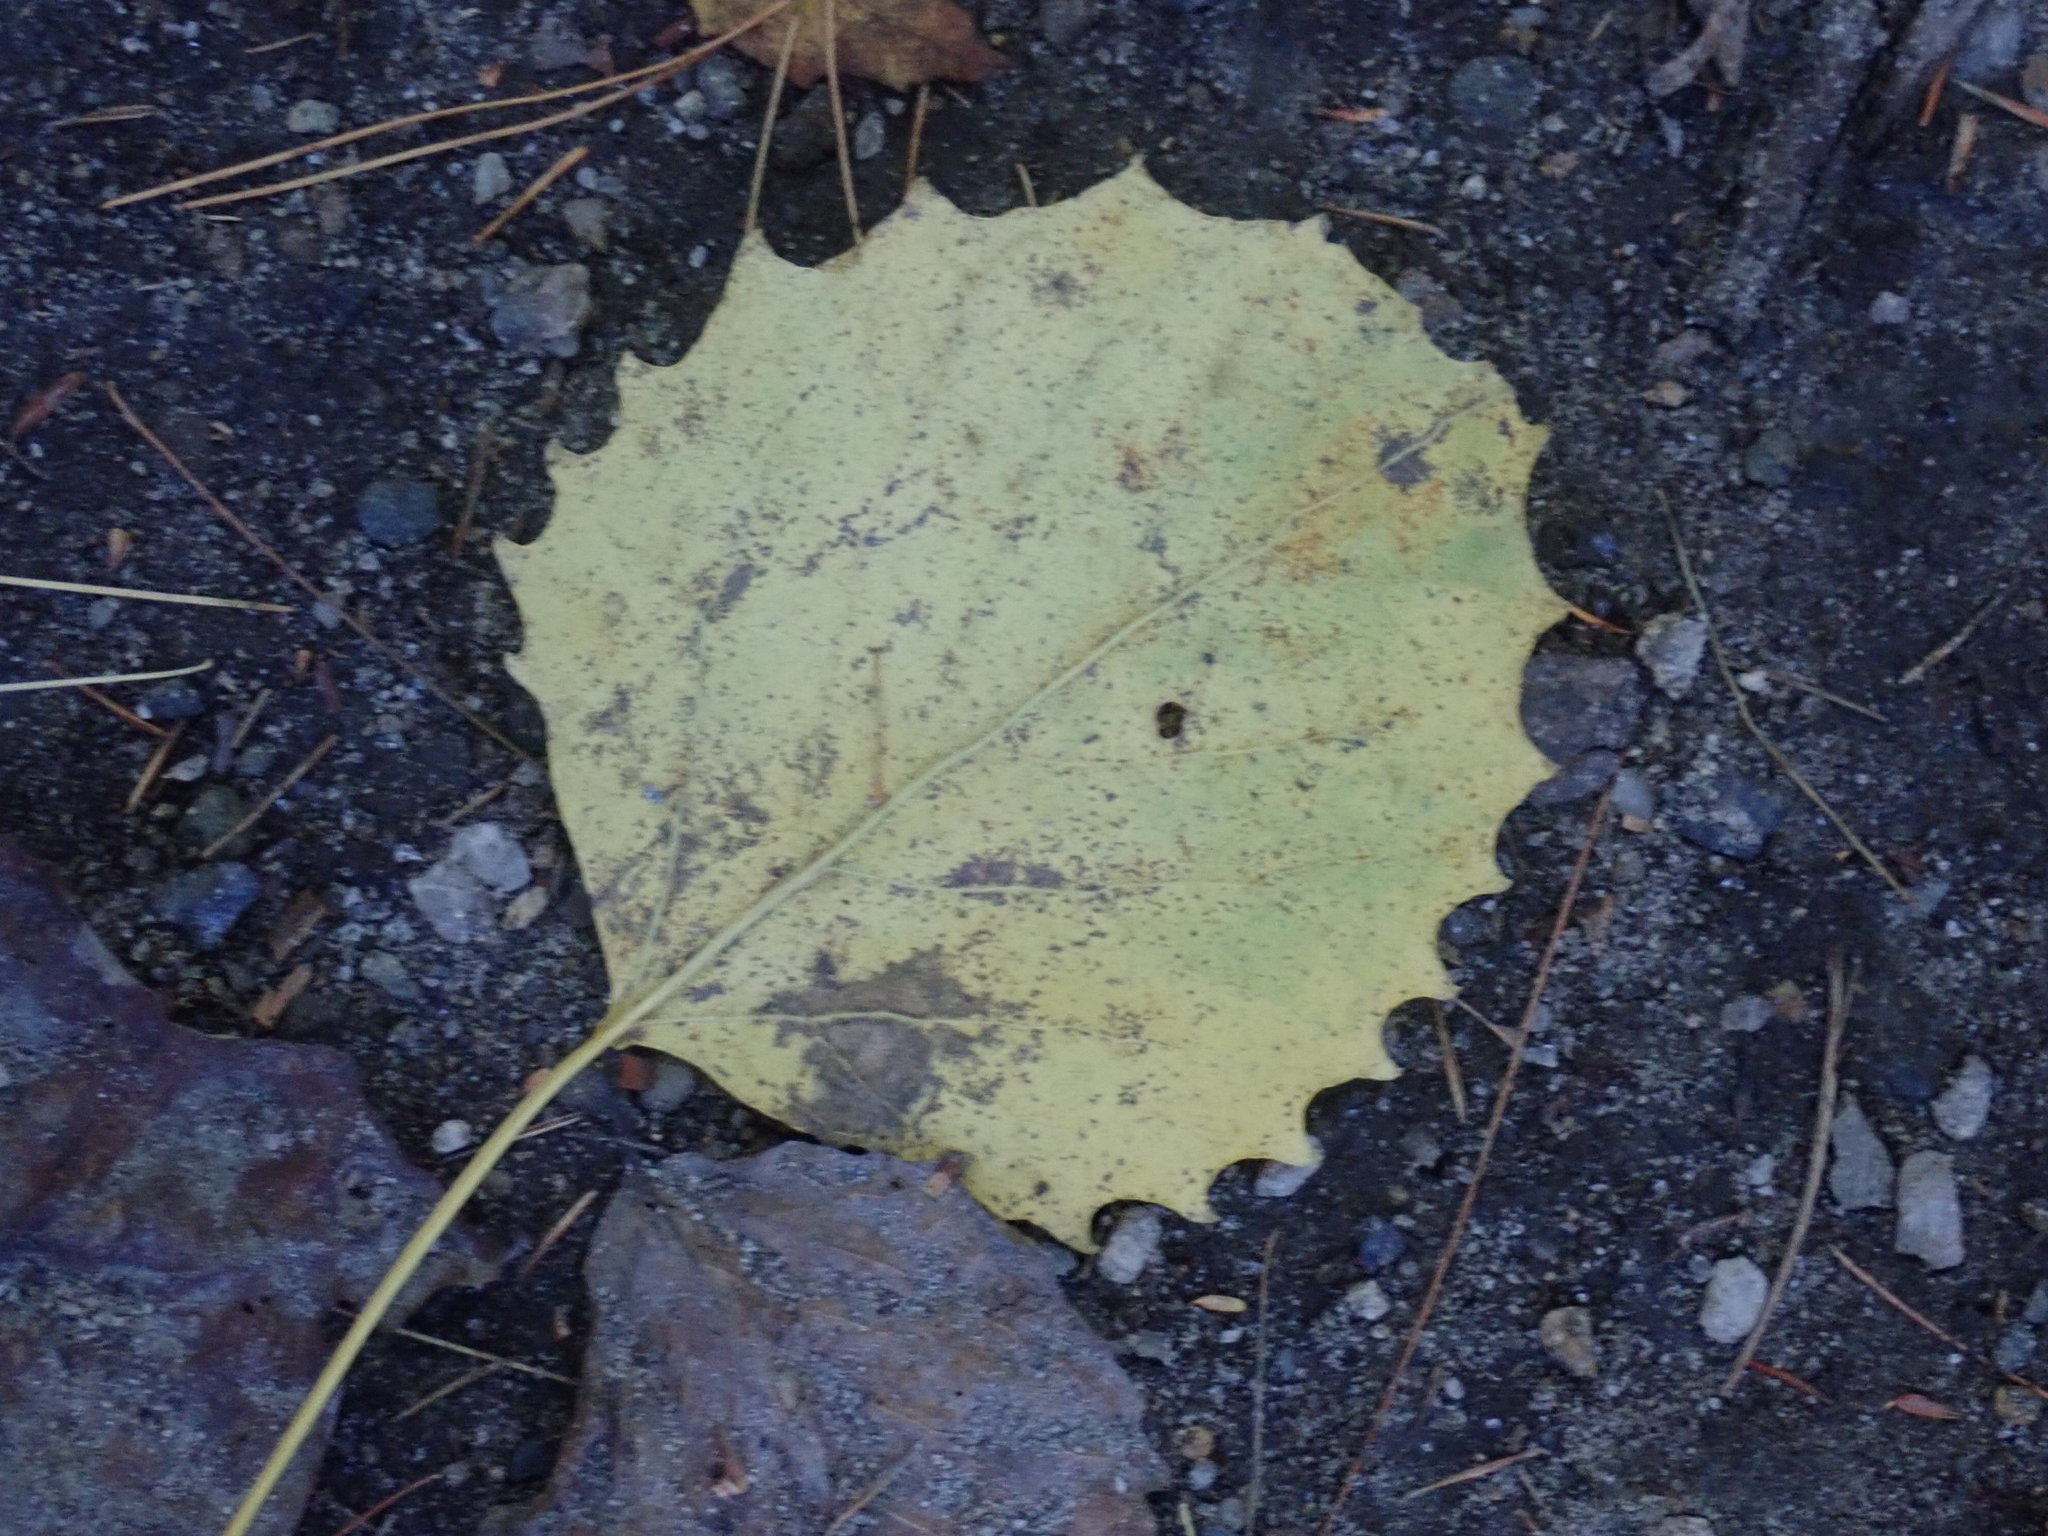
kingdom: Plantae
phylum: Tracheophyta
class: Magnoliopsida
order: Malpighiales
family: Salicaceae
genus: Populus
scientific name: Populus grandidentata
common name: Bigtooth aspen
